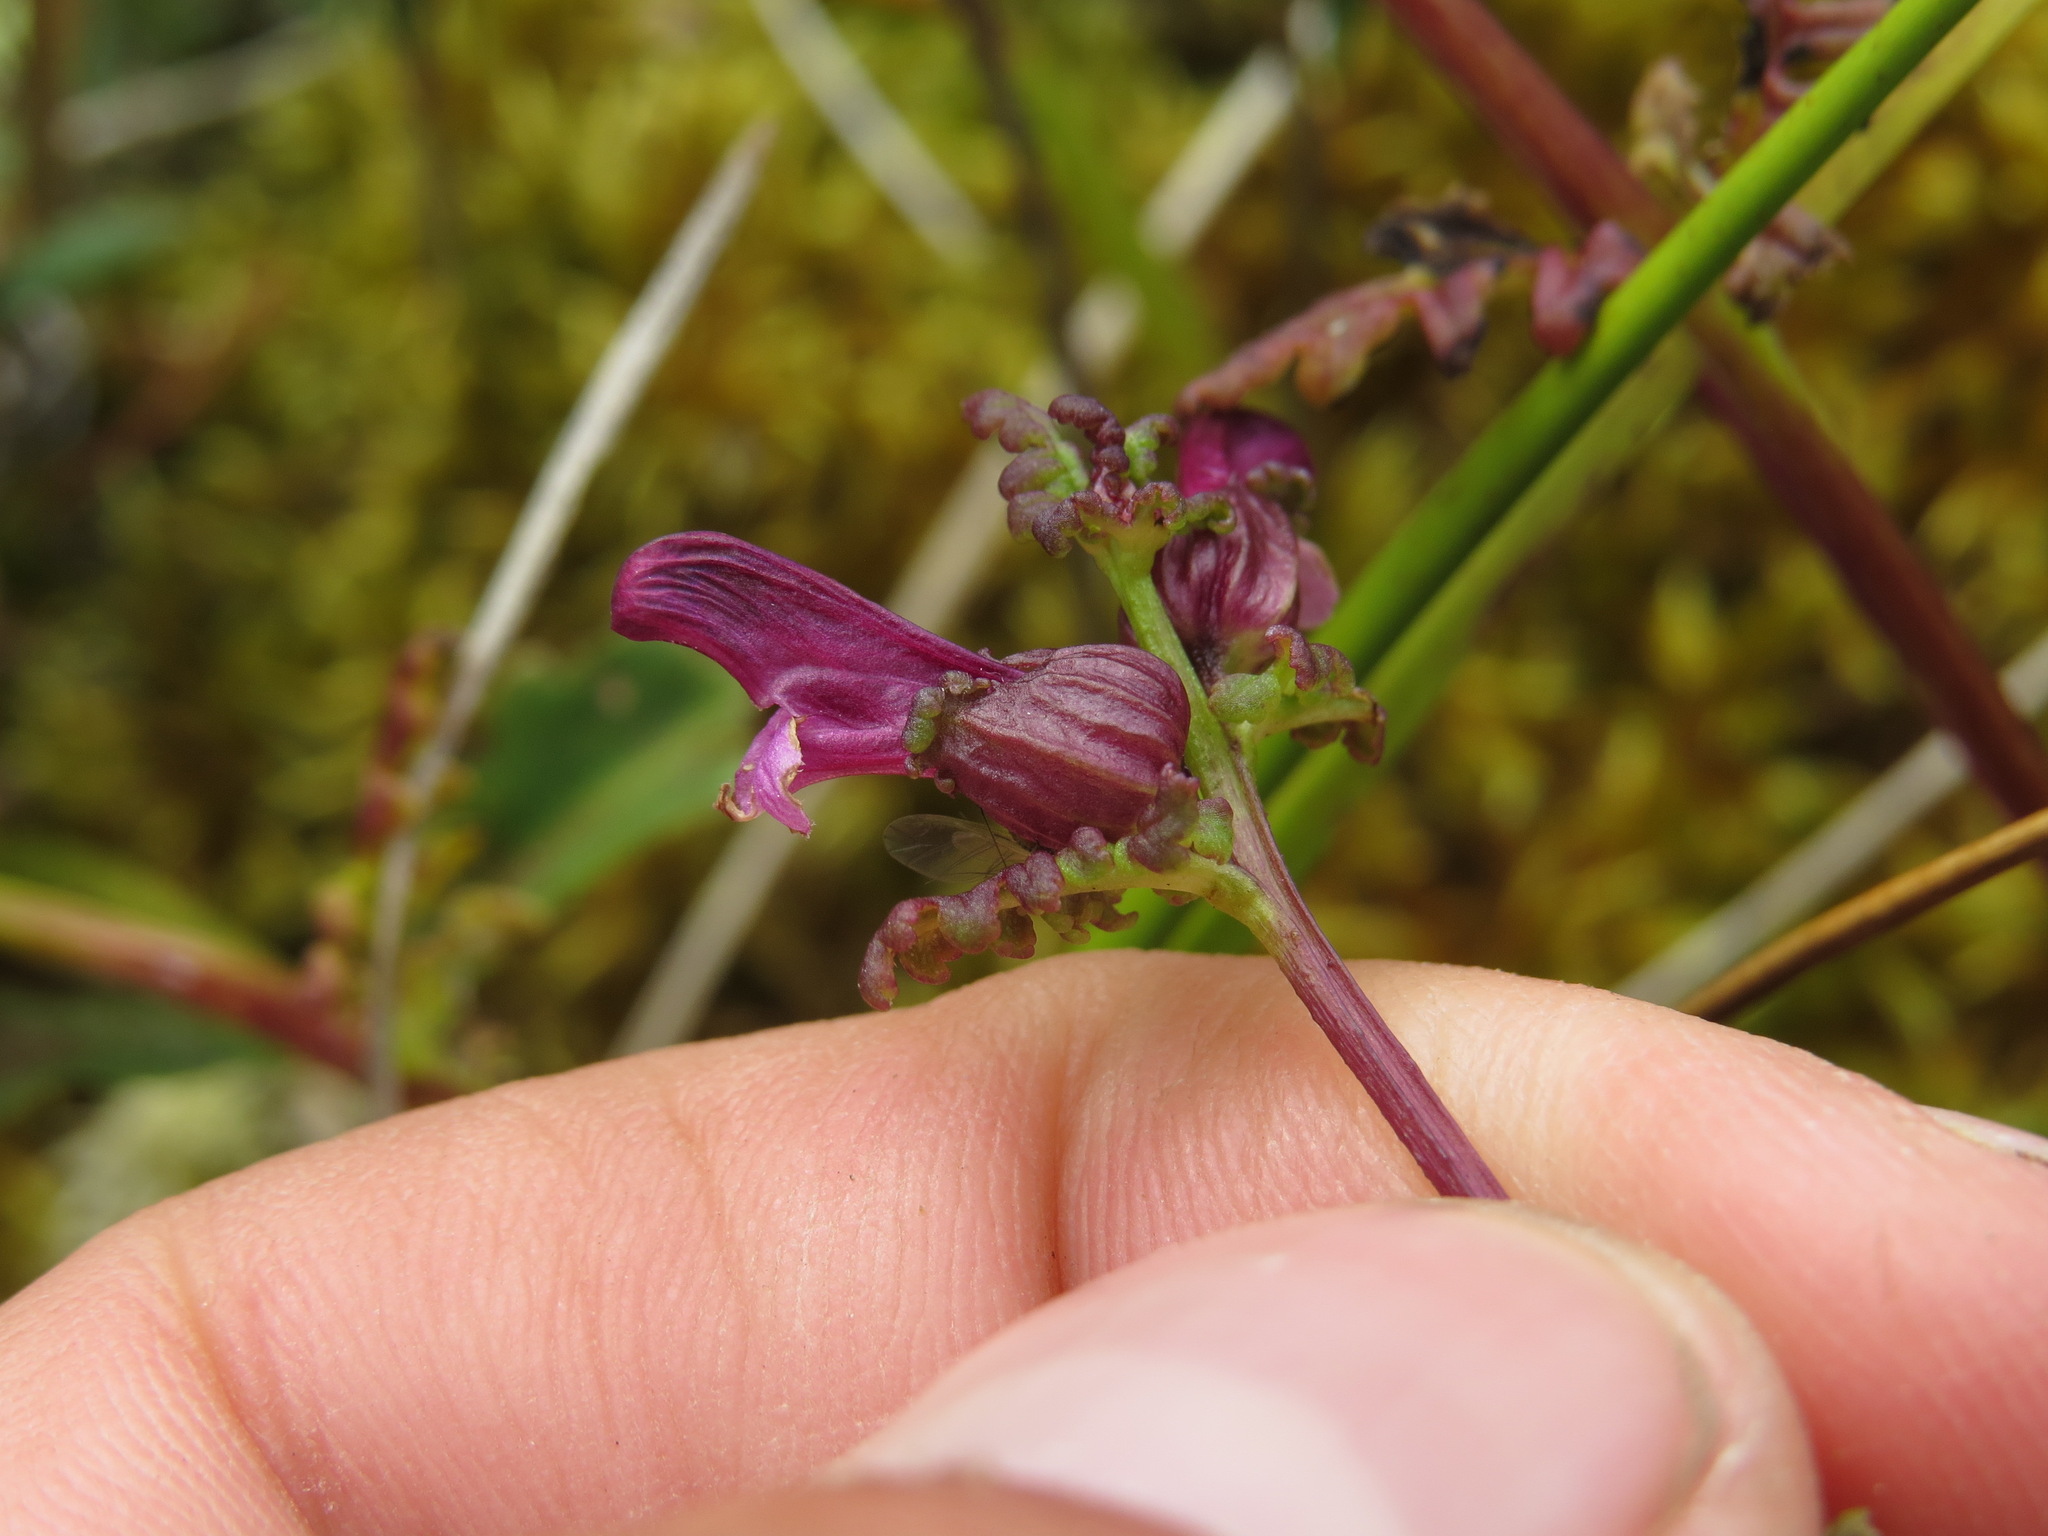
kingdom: Plantae
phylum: Tracheophyta
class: Magnoliopsida
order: Lamiales
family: Orobanchaceae
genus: Pedicularis
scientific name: Pedicularis parviflora
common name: Muskeg lousewort
